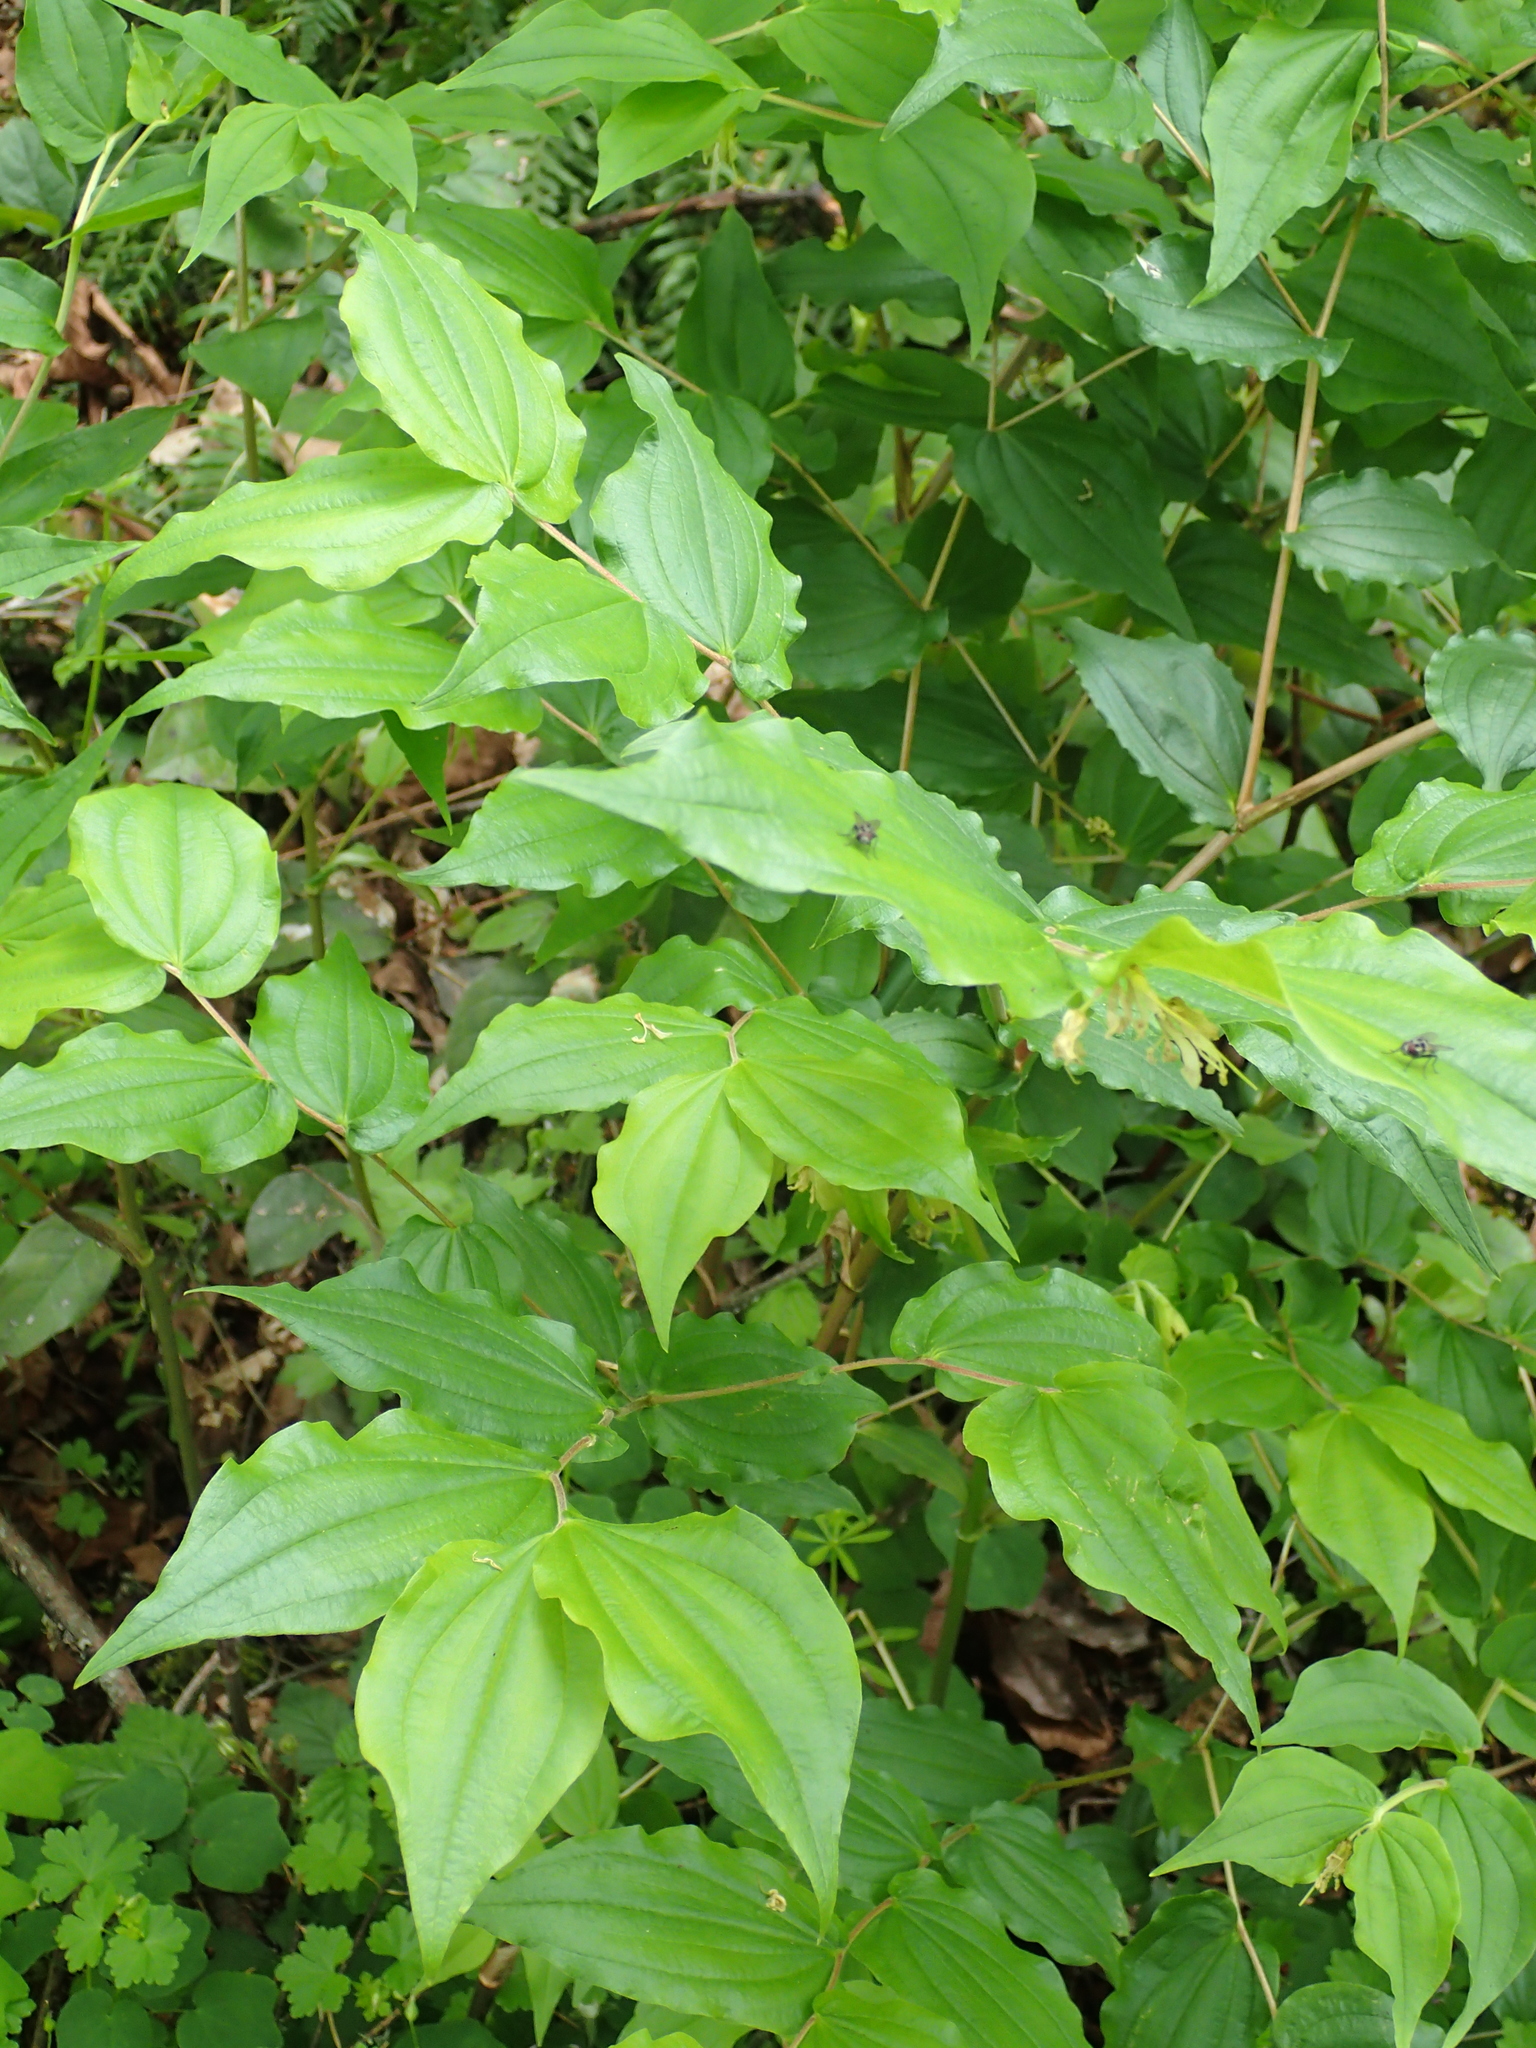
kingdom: Plantae
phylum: Tracheophyta
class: Liliopsida
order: Liliales
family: Liliaceae
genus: Prosartes
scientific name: Prosartes hookeri
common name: Fairy-bells
